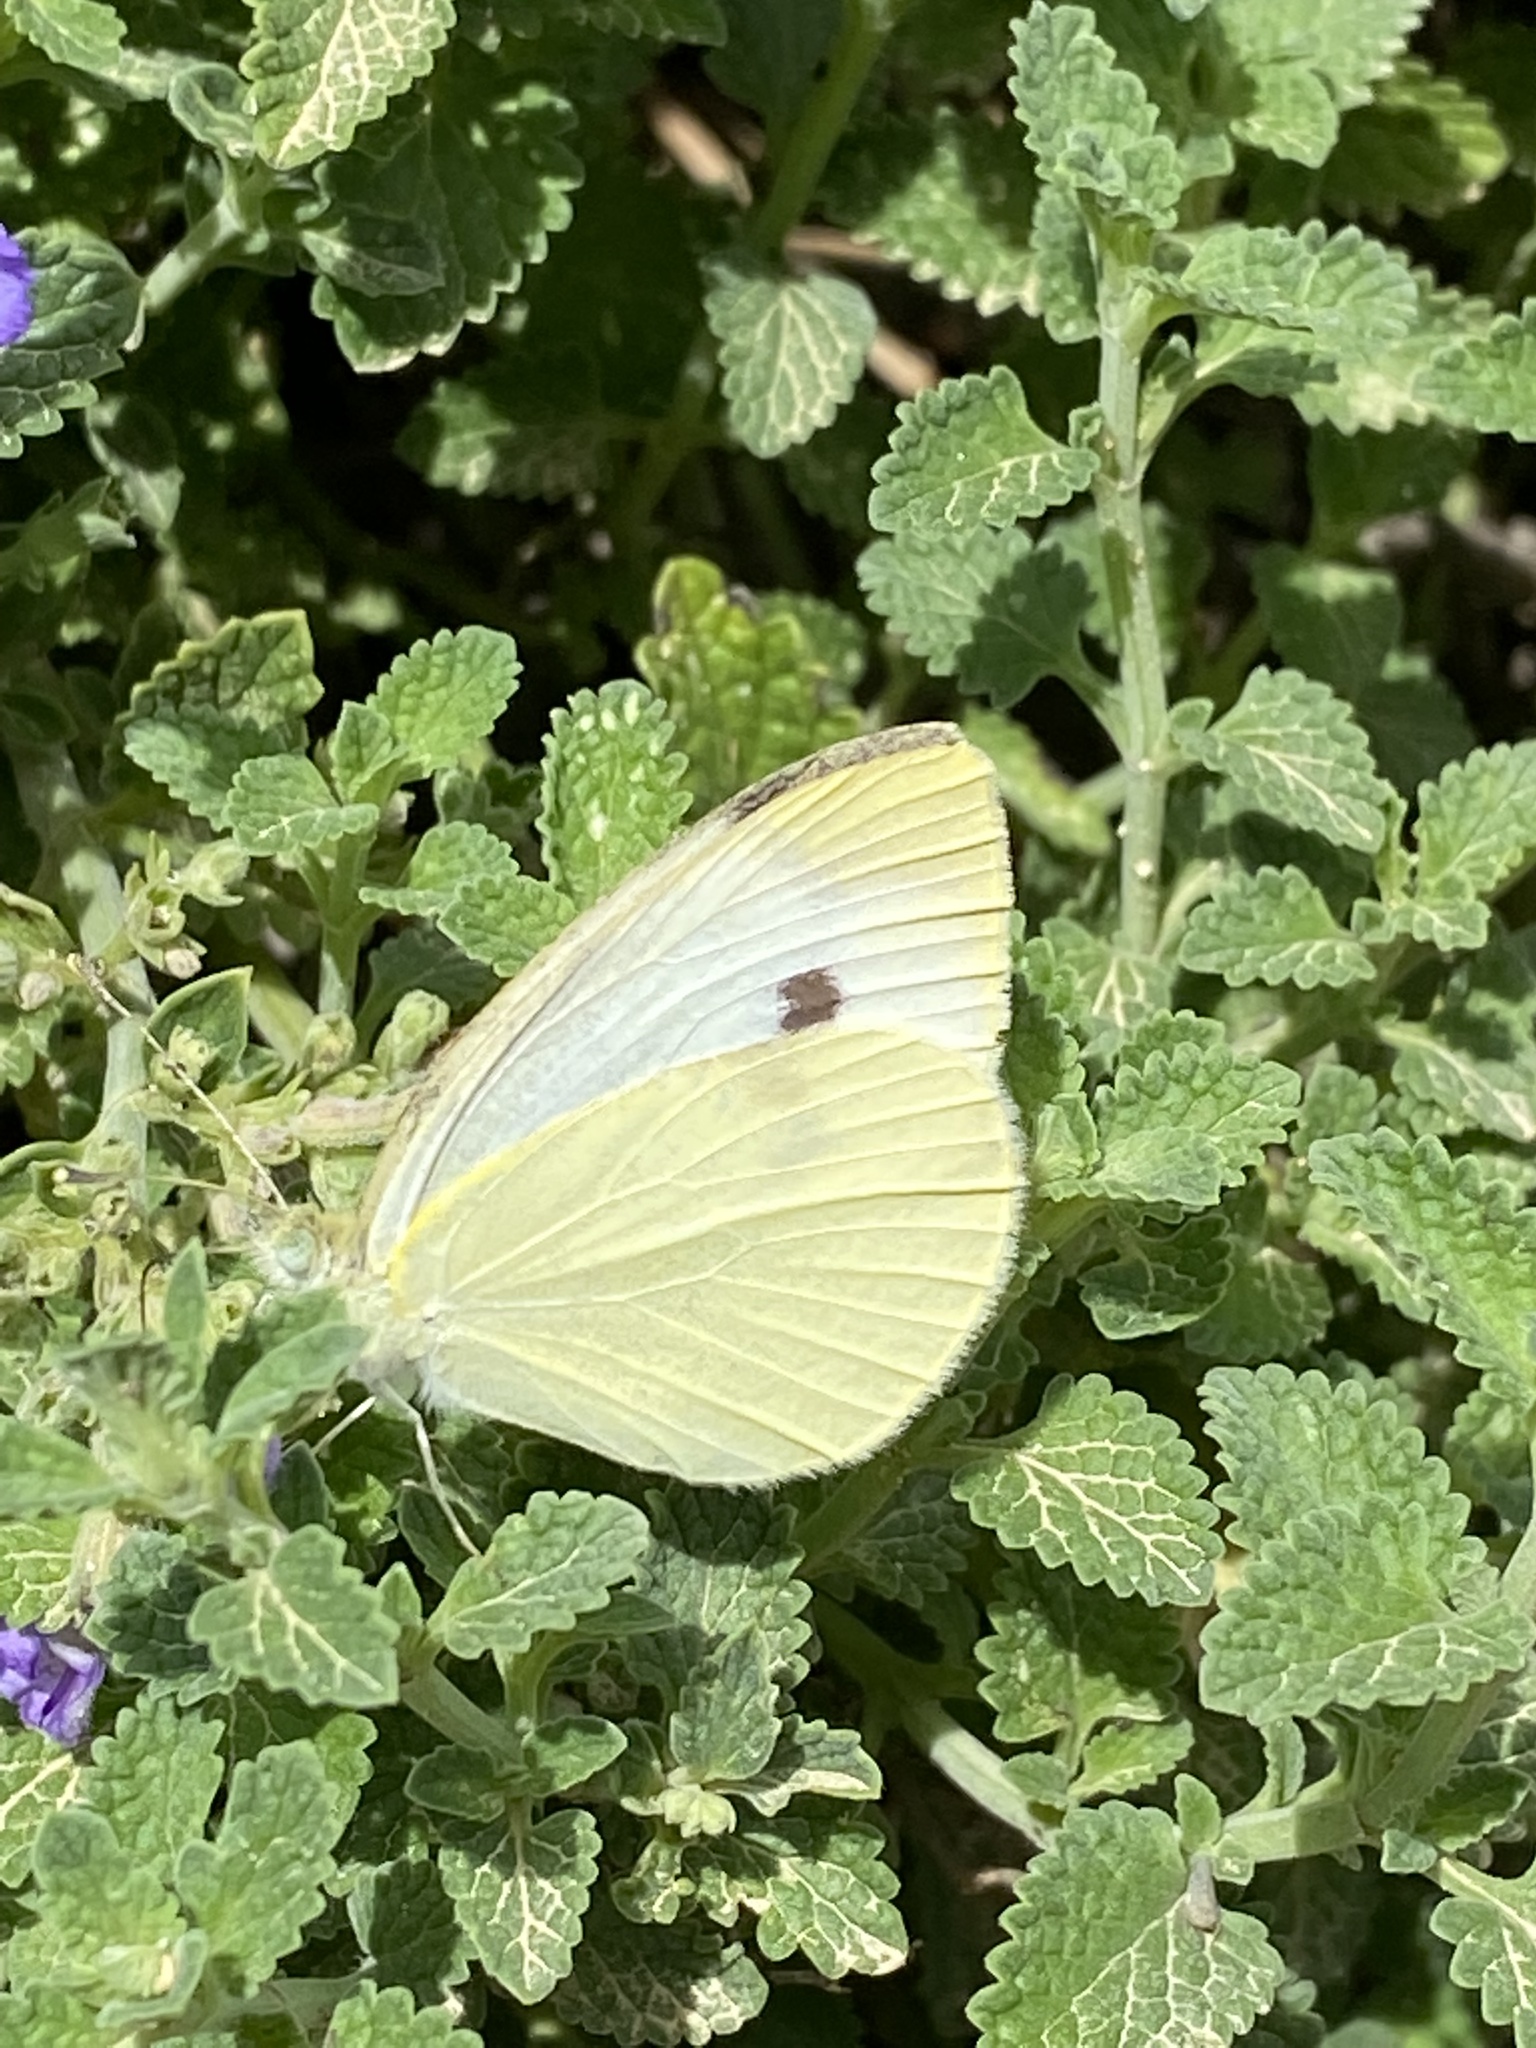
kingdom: Animalia
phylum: Arthropoda
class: Insecta
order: Lepidoptera
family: Pieridae
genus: Pieris
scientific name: Pieris rapae
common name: Small white
